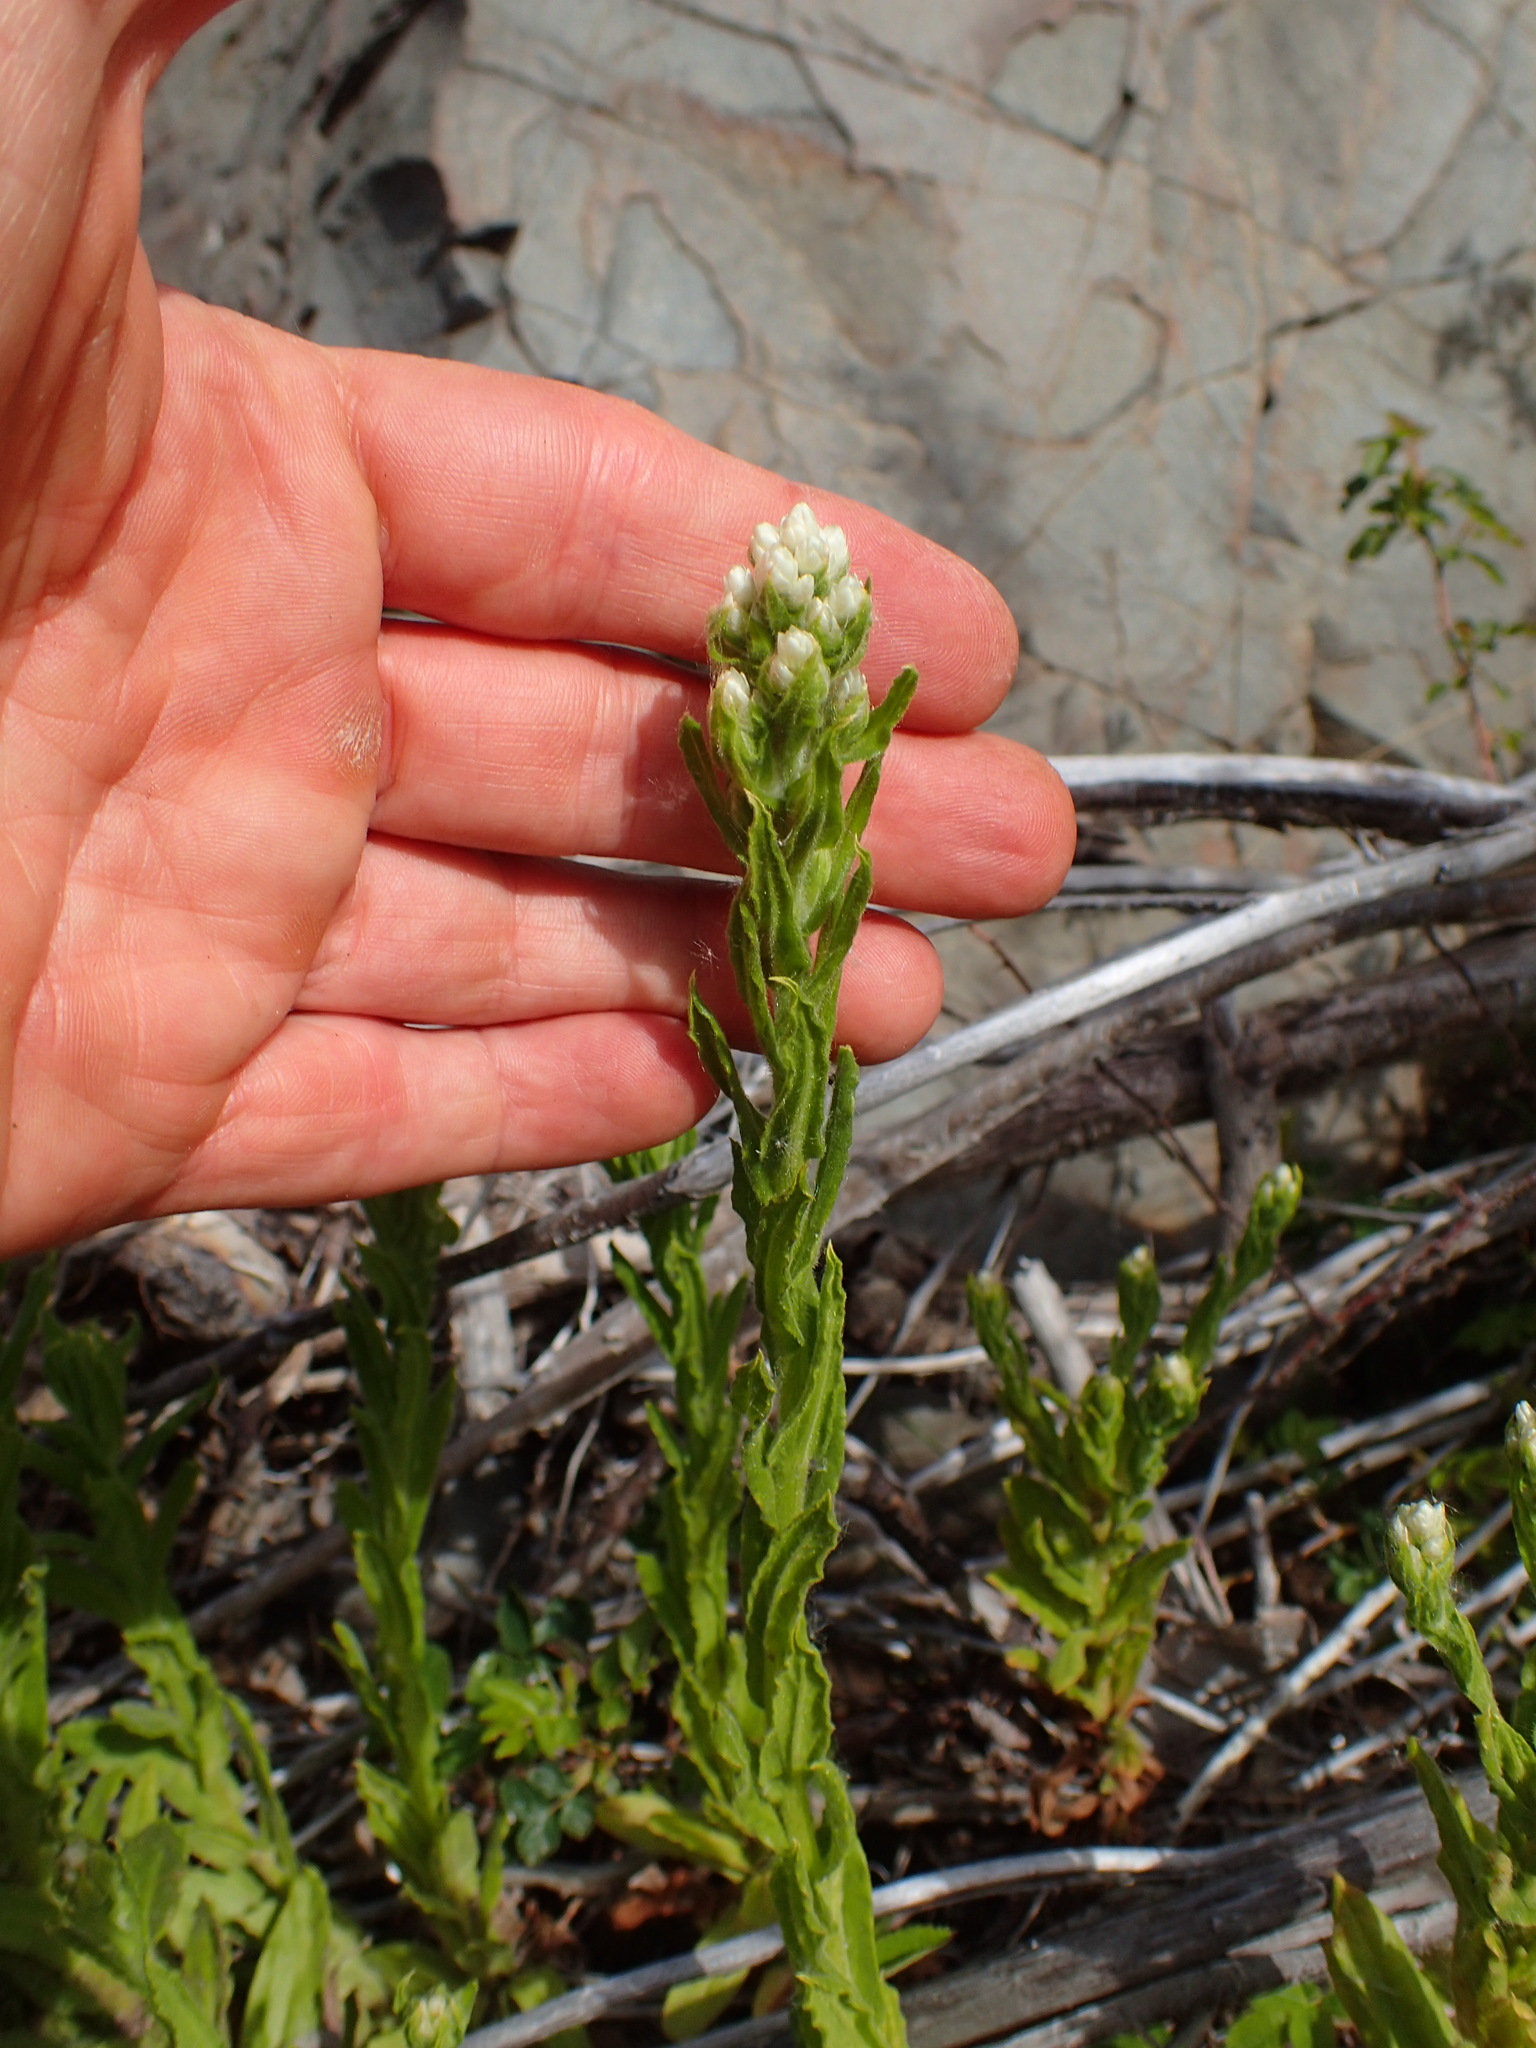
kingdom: Plantae
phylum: Tracheophyta
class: Magnoliopsida
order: Asterales
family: Asteraceae
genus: Pseudognaphalium
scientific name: Pseudognaphalium californicum
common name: California rabbit-tobacco
